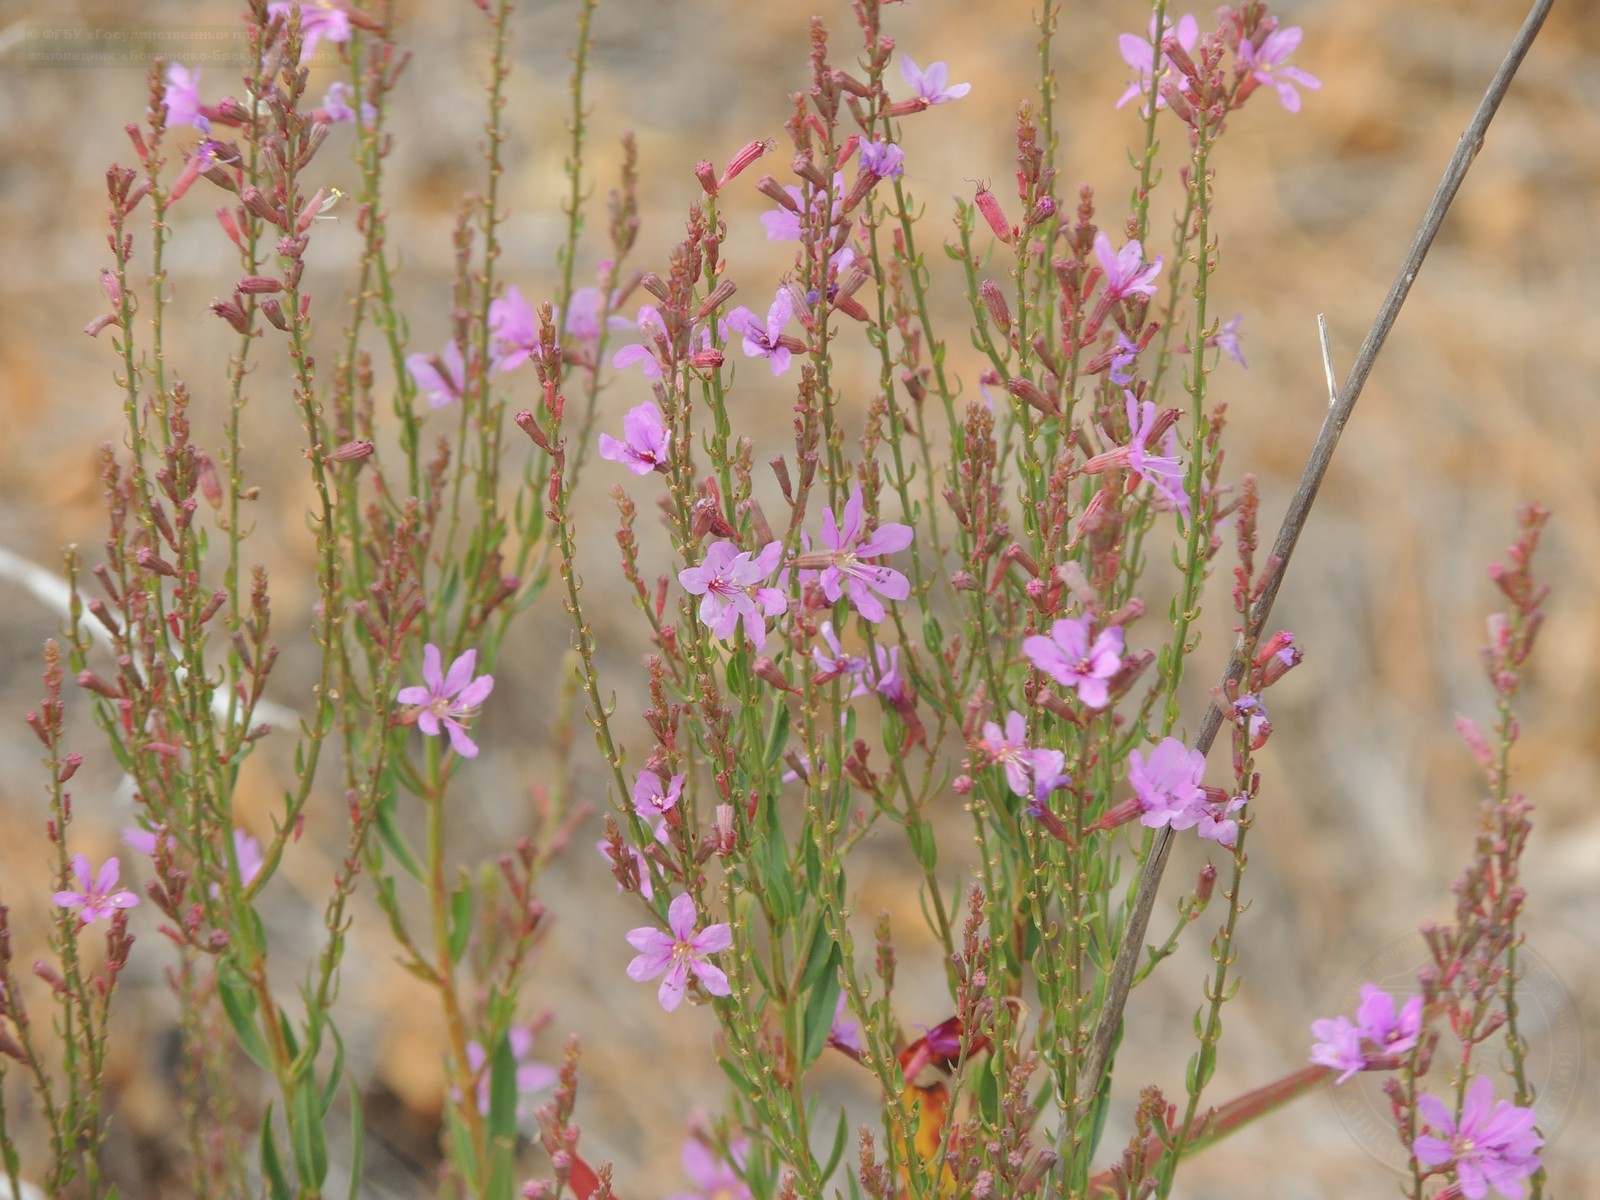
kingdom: Plantae
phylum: Tracheophyta
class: Magnoliopsida
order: Myrtales
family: Lythraceae
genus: Lythrum
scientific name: Lythrum virgatum
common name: European wand loosestrife
